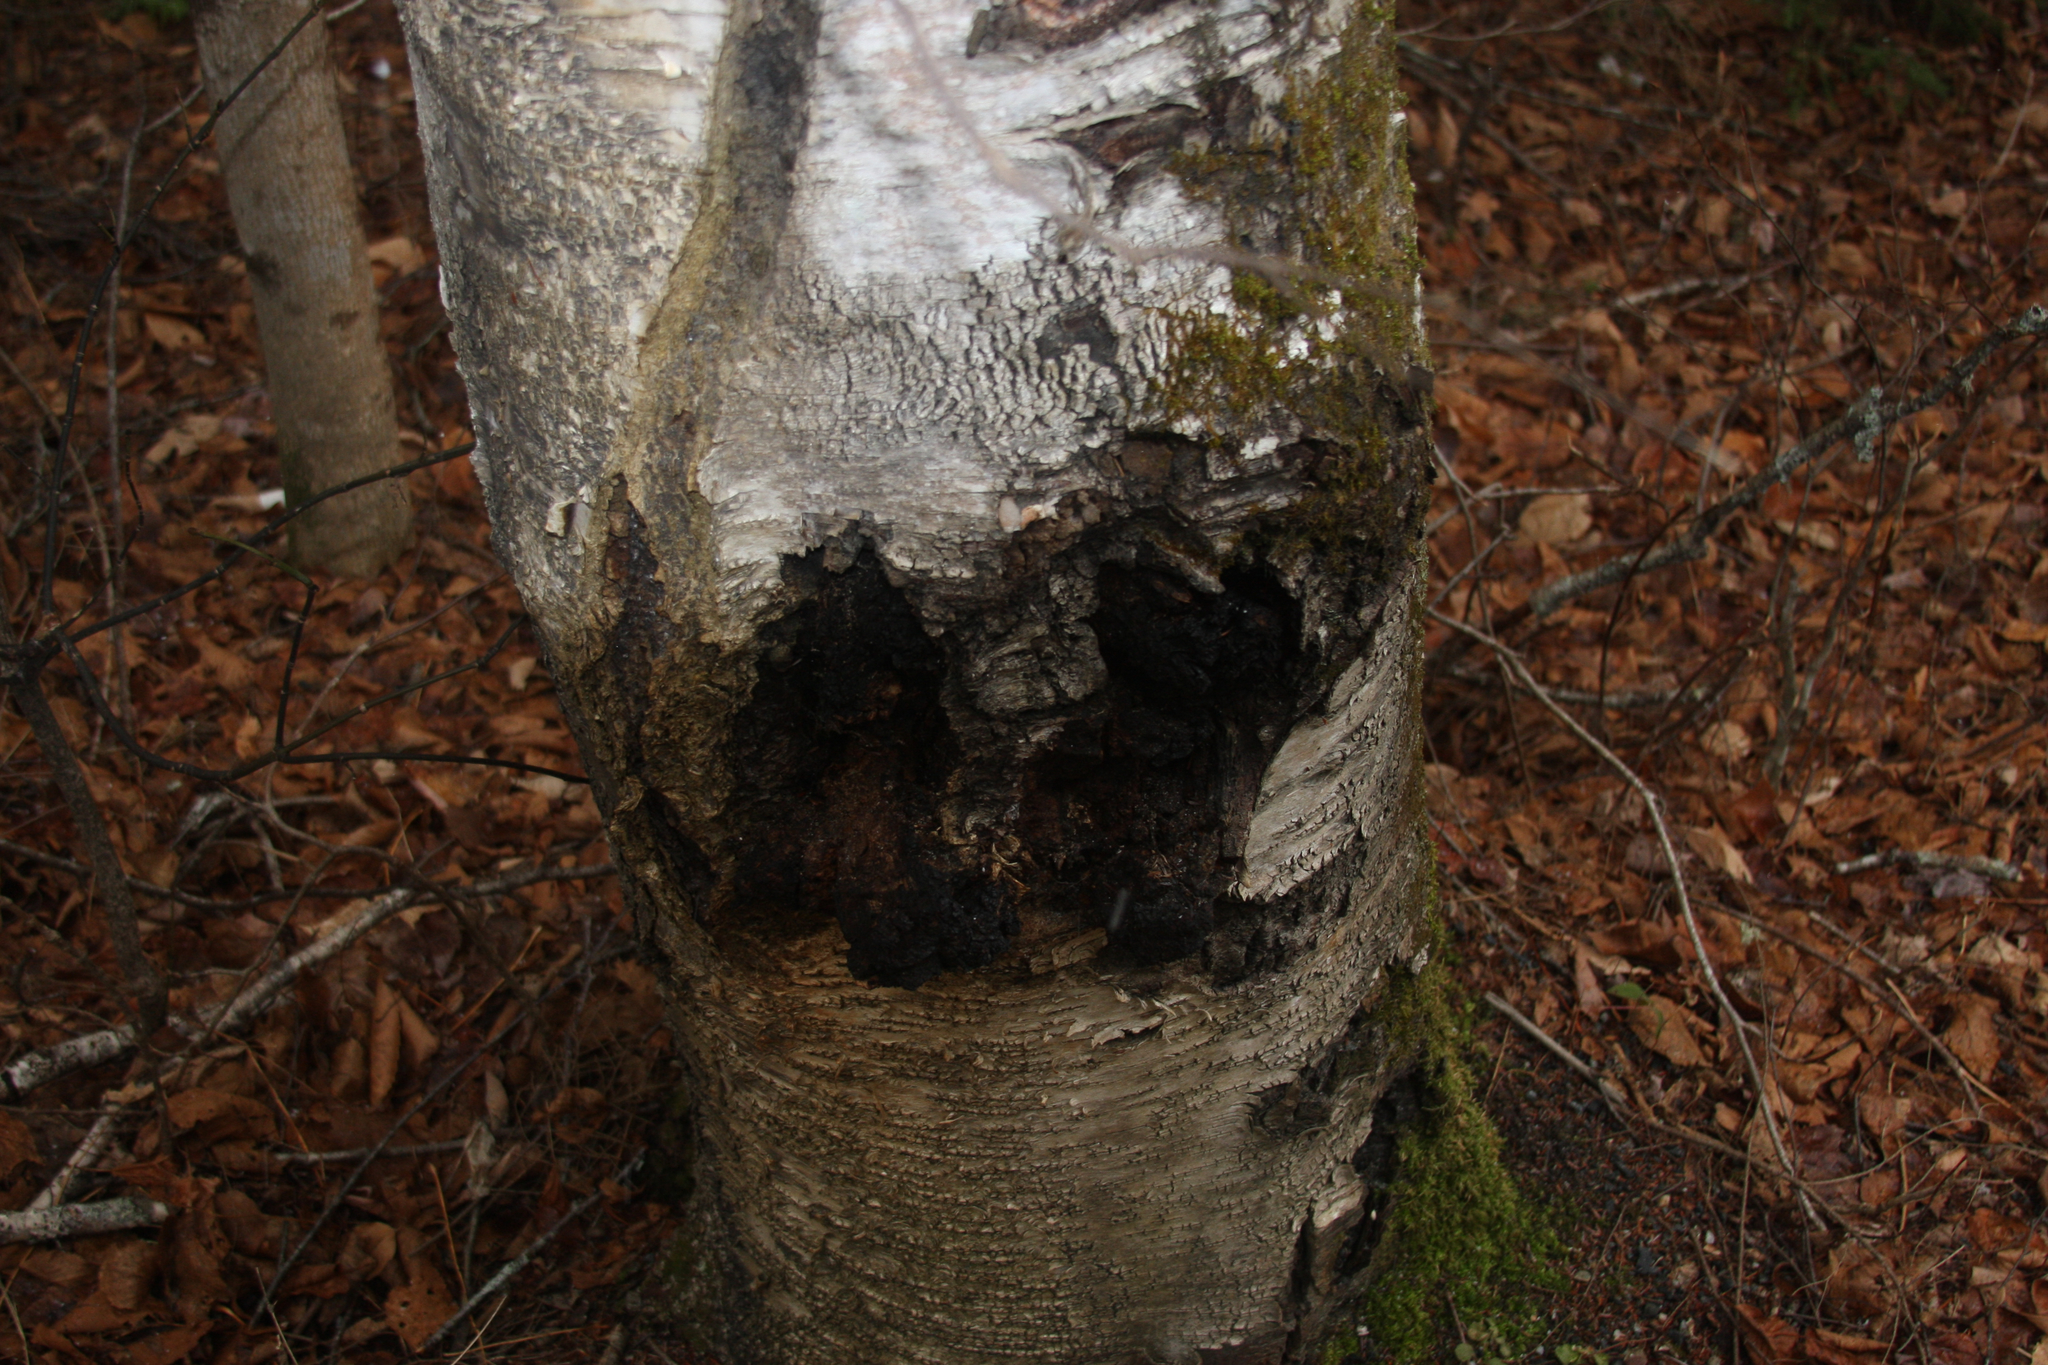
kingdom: Fungi
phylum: Basidiomycota
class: Agaricomycetes
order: Hymenochaetales
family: Hymenochaetaceae
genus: Inonotus
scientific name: Inonotus obliquus
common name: Chaga
